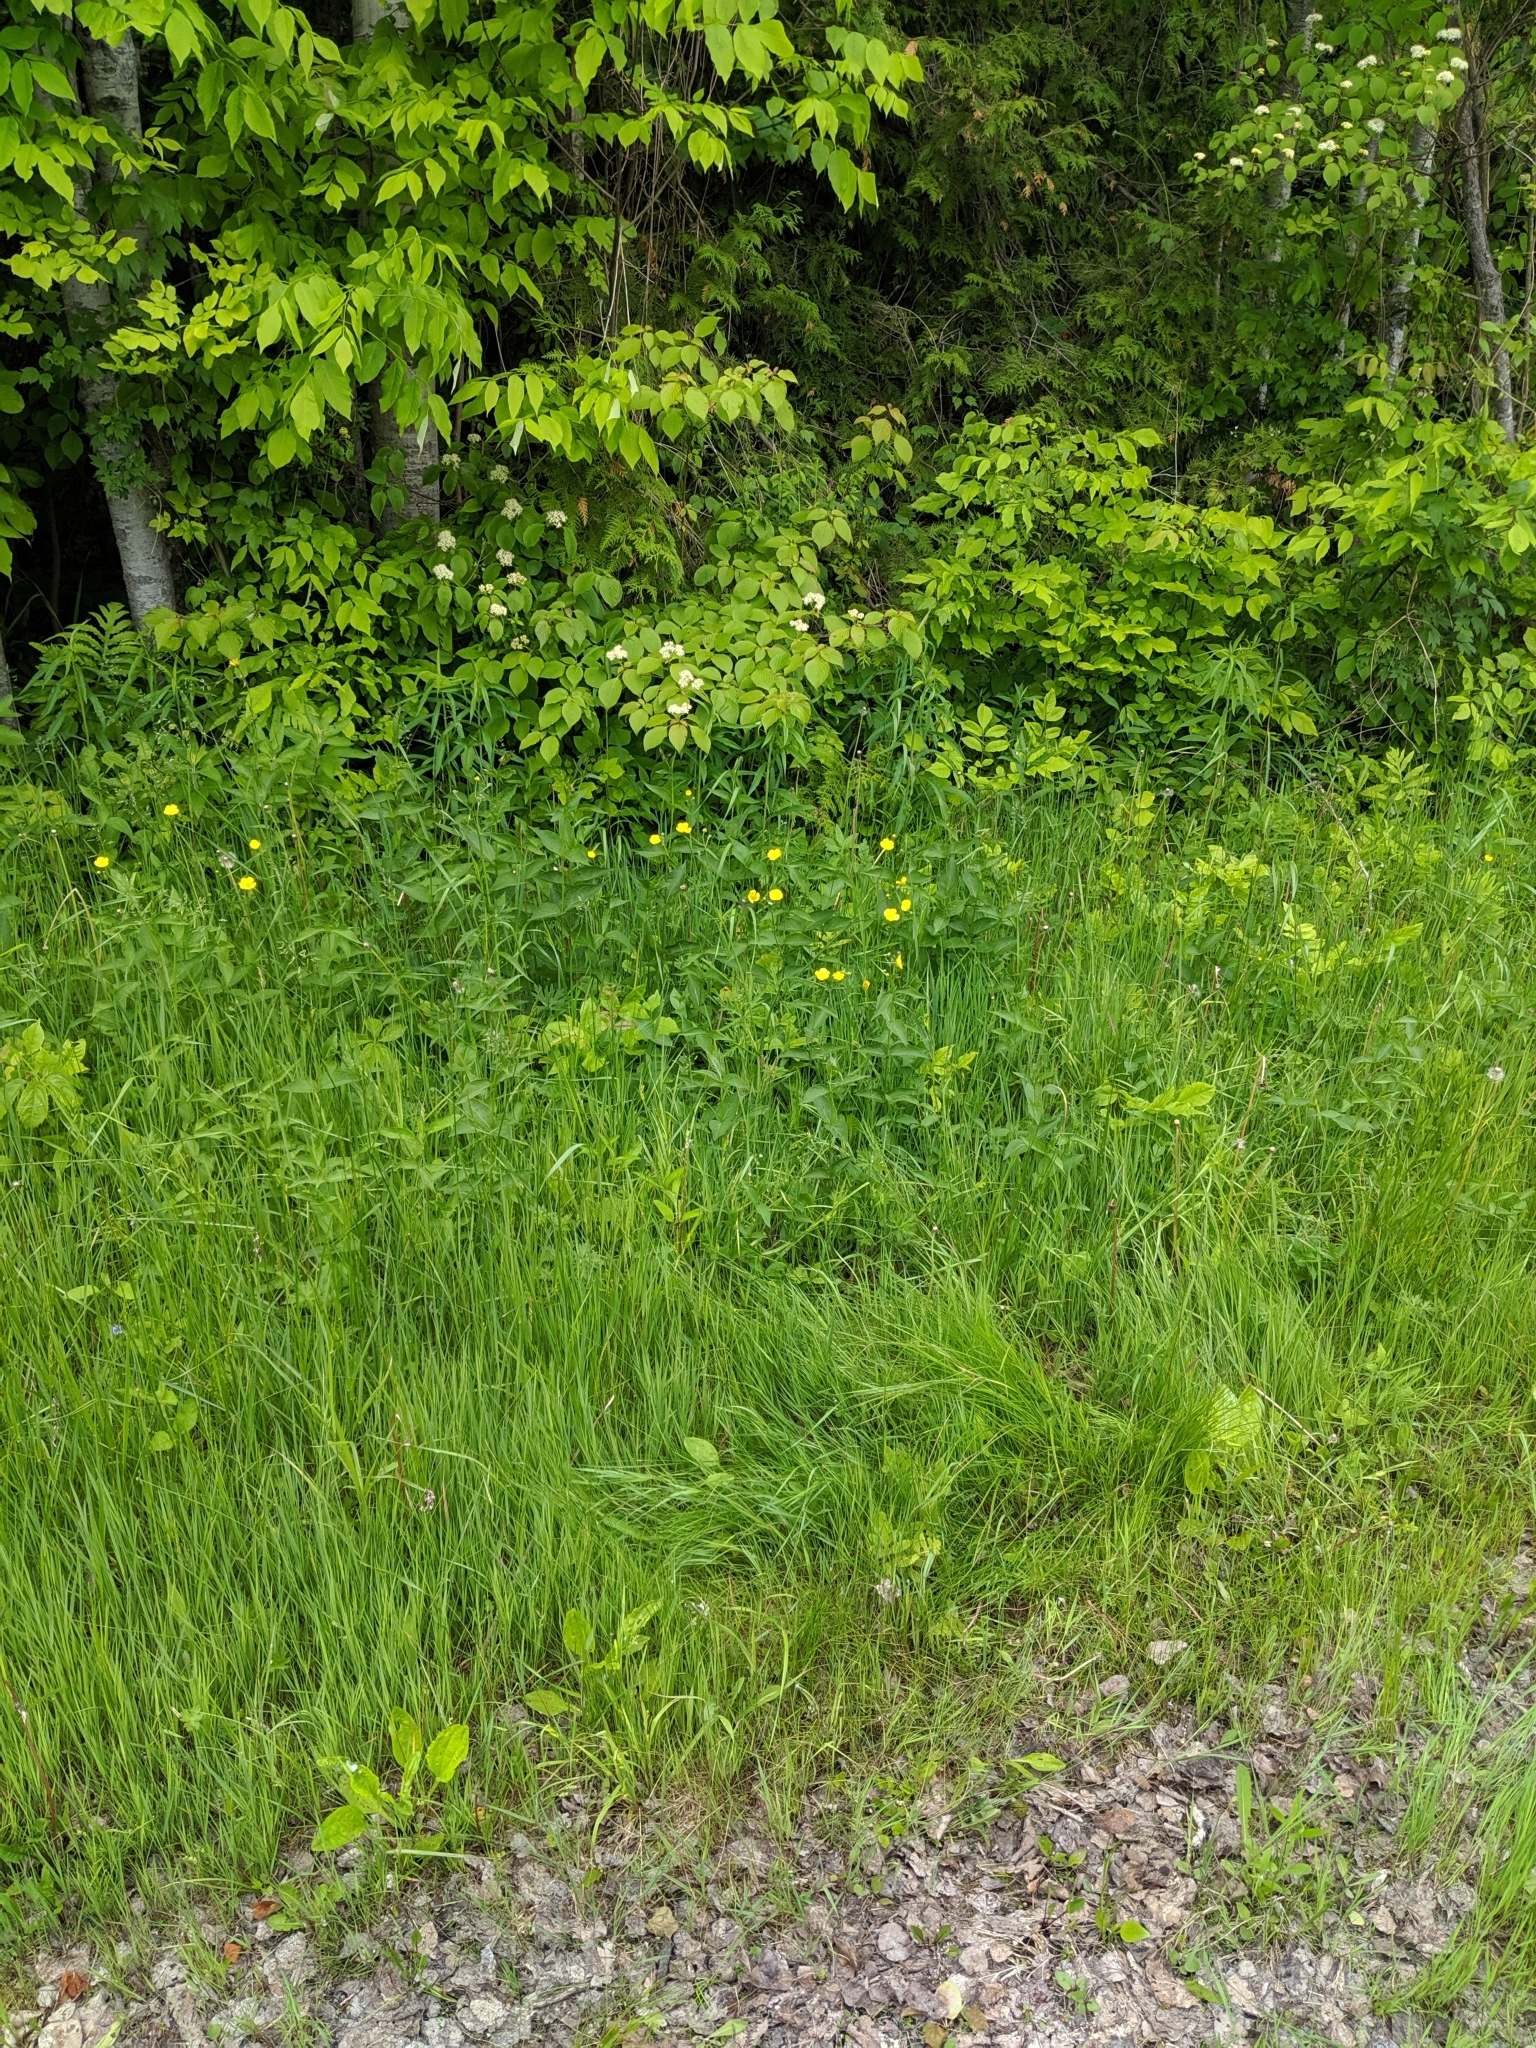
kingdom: Plantae
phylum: Tracheophyta
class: Magnoliopsida
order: Gentianales
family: Apocynaceae
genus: Vincetoxicum
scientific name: Vincetoxicum rossicum
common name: Dog-strangling vine
